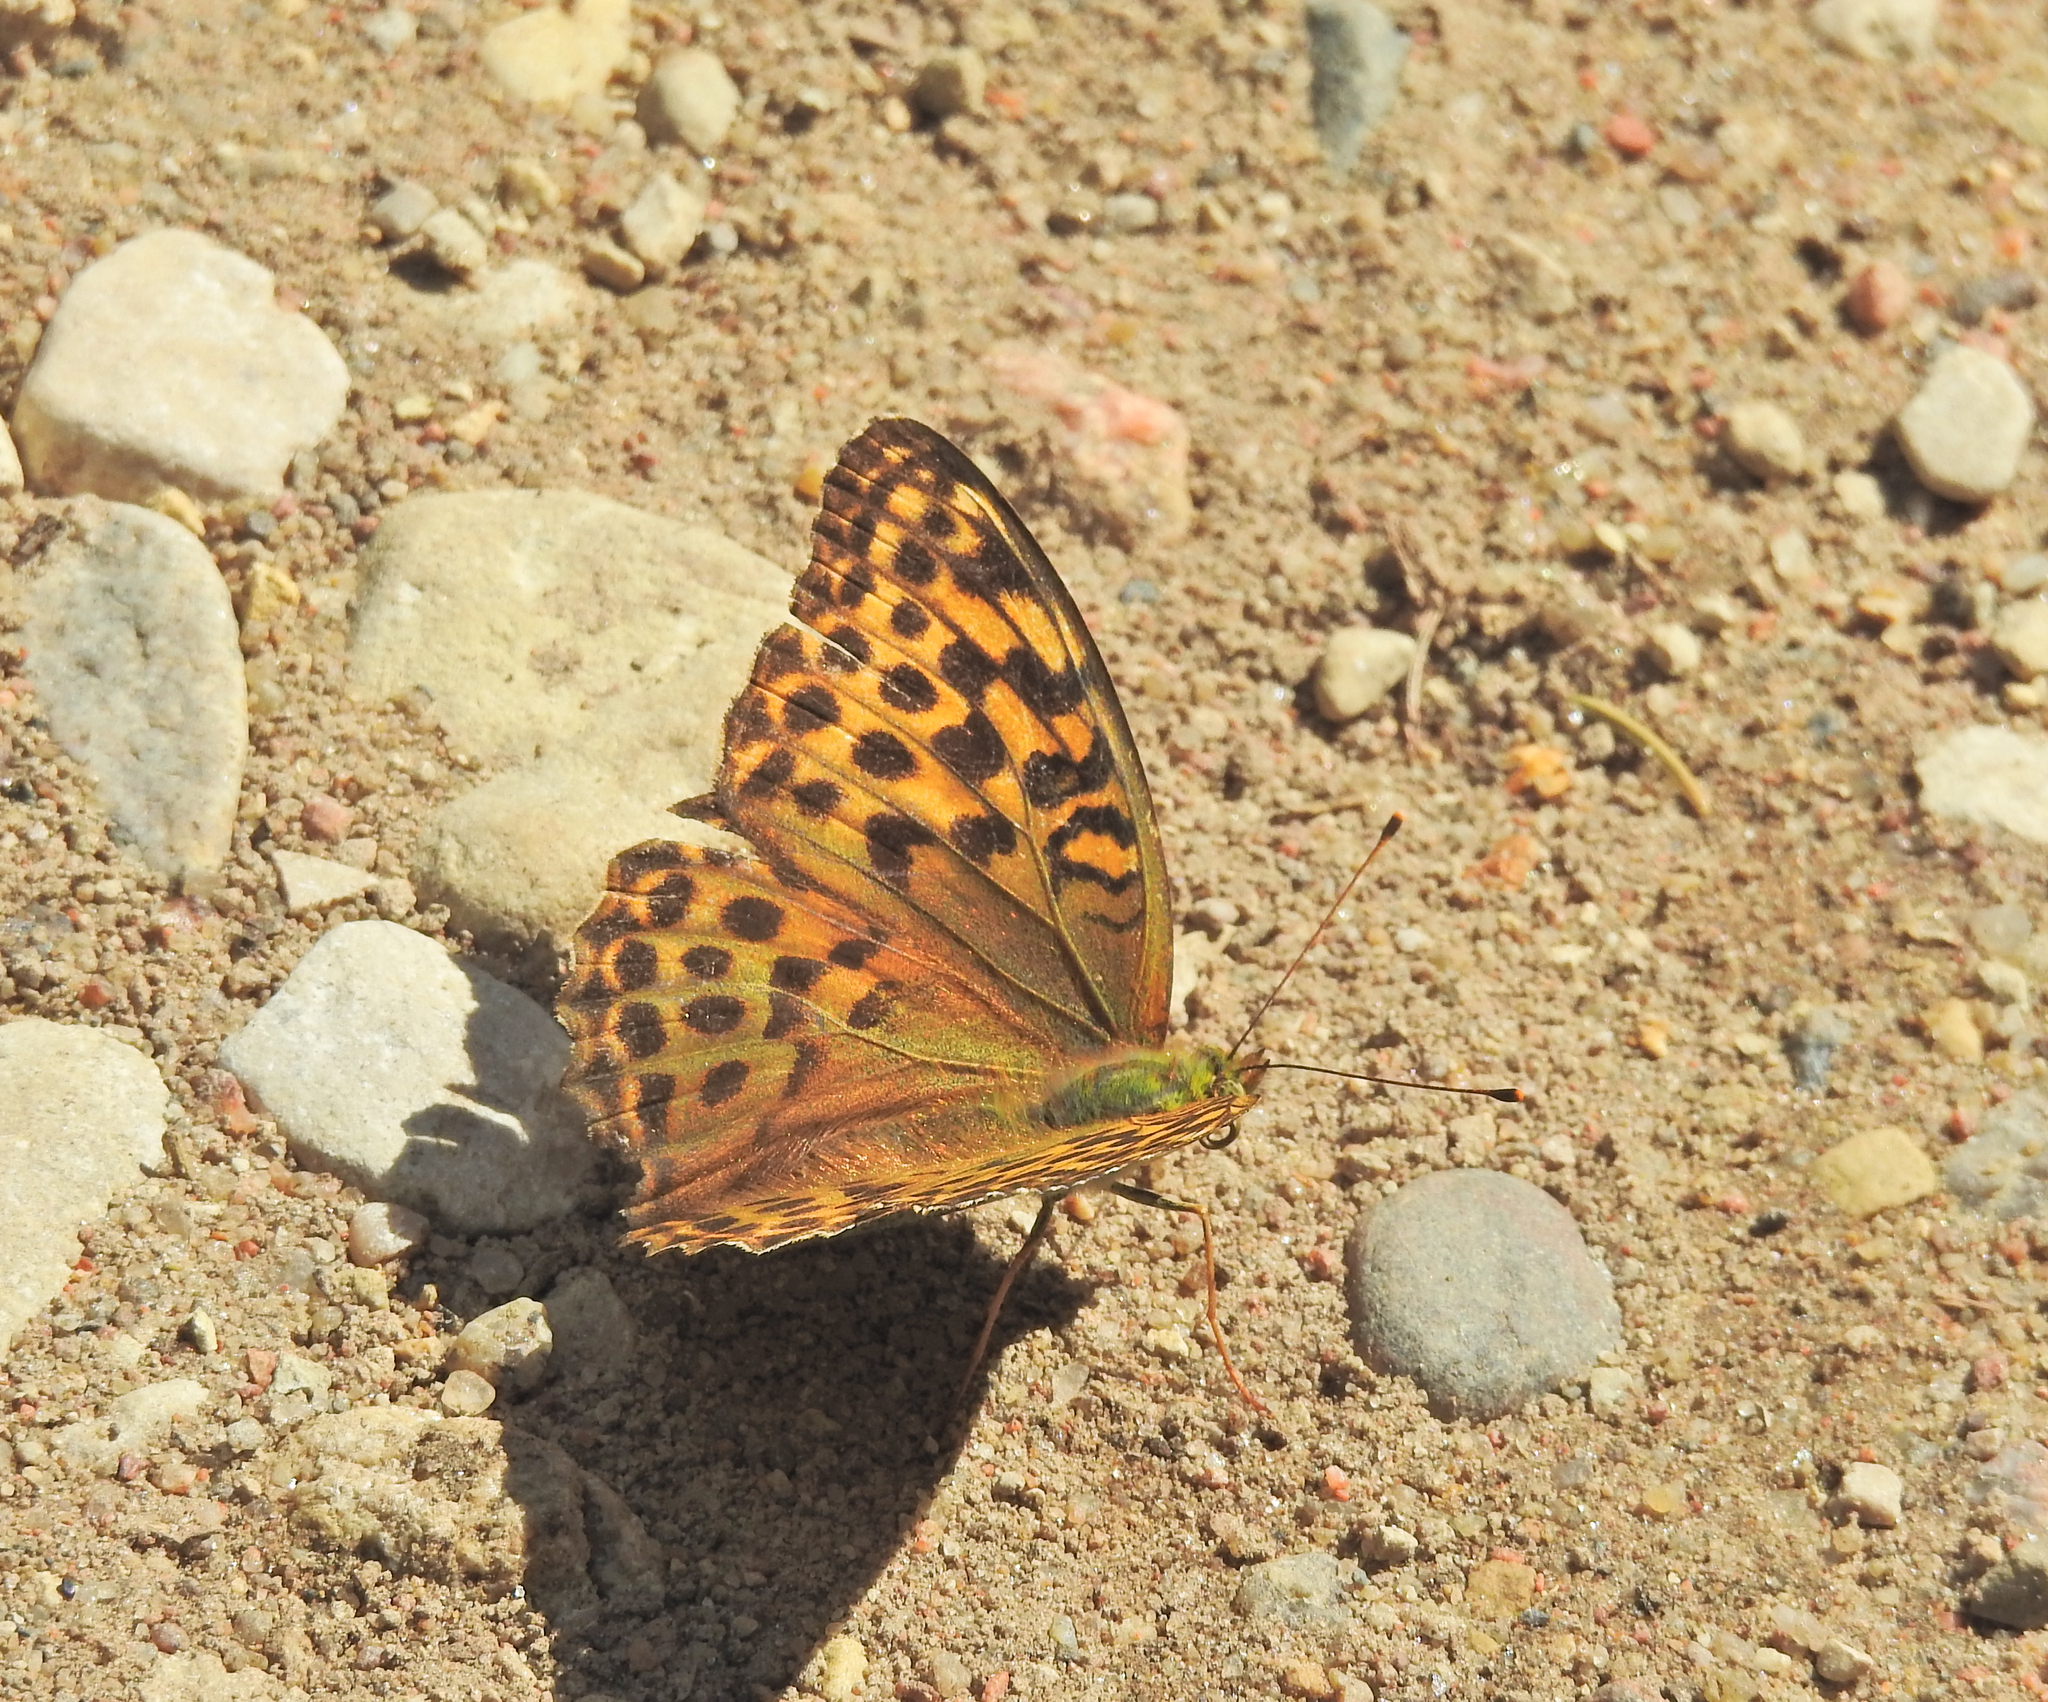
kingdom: Animalia
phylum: Arthropoda
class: Insecta
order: Lepidoptera
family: Nymphalidae
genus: Argynnis
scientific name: Argynnis paphia
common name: Silver-washed fritillary
